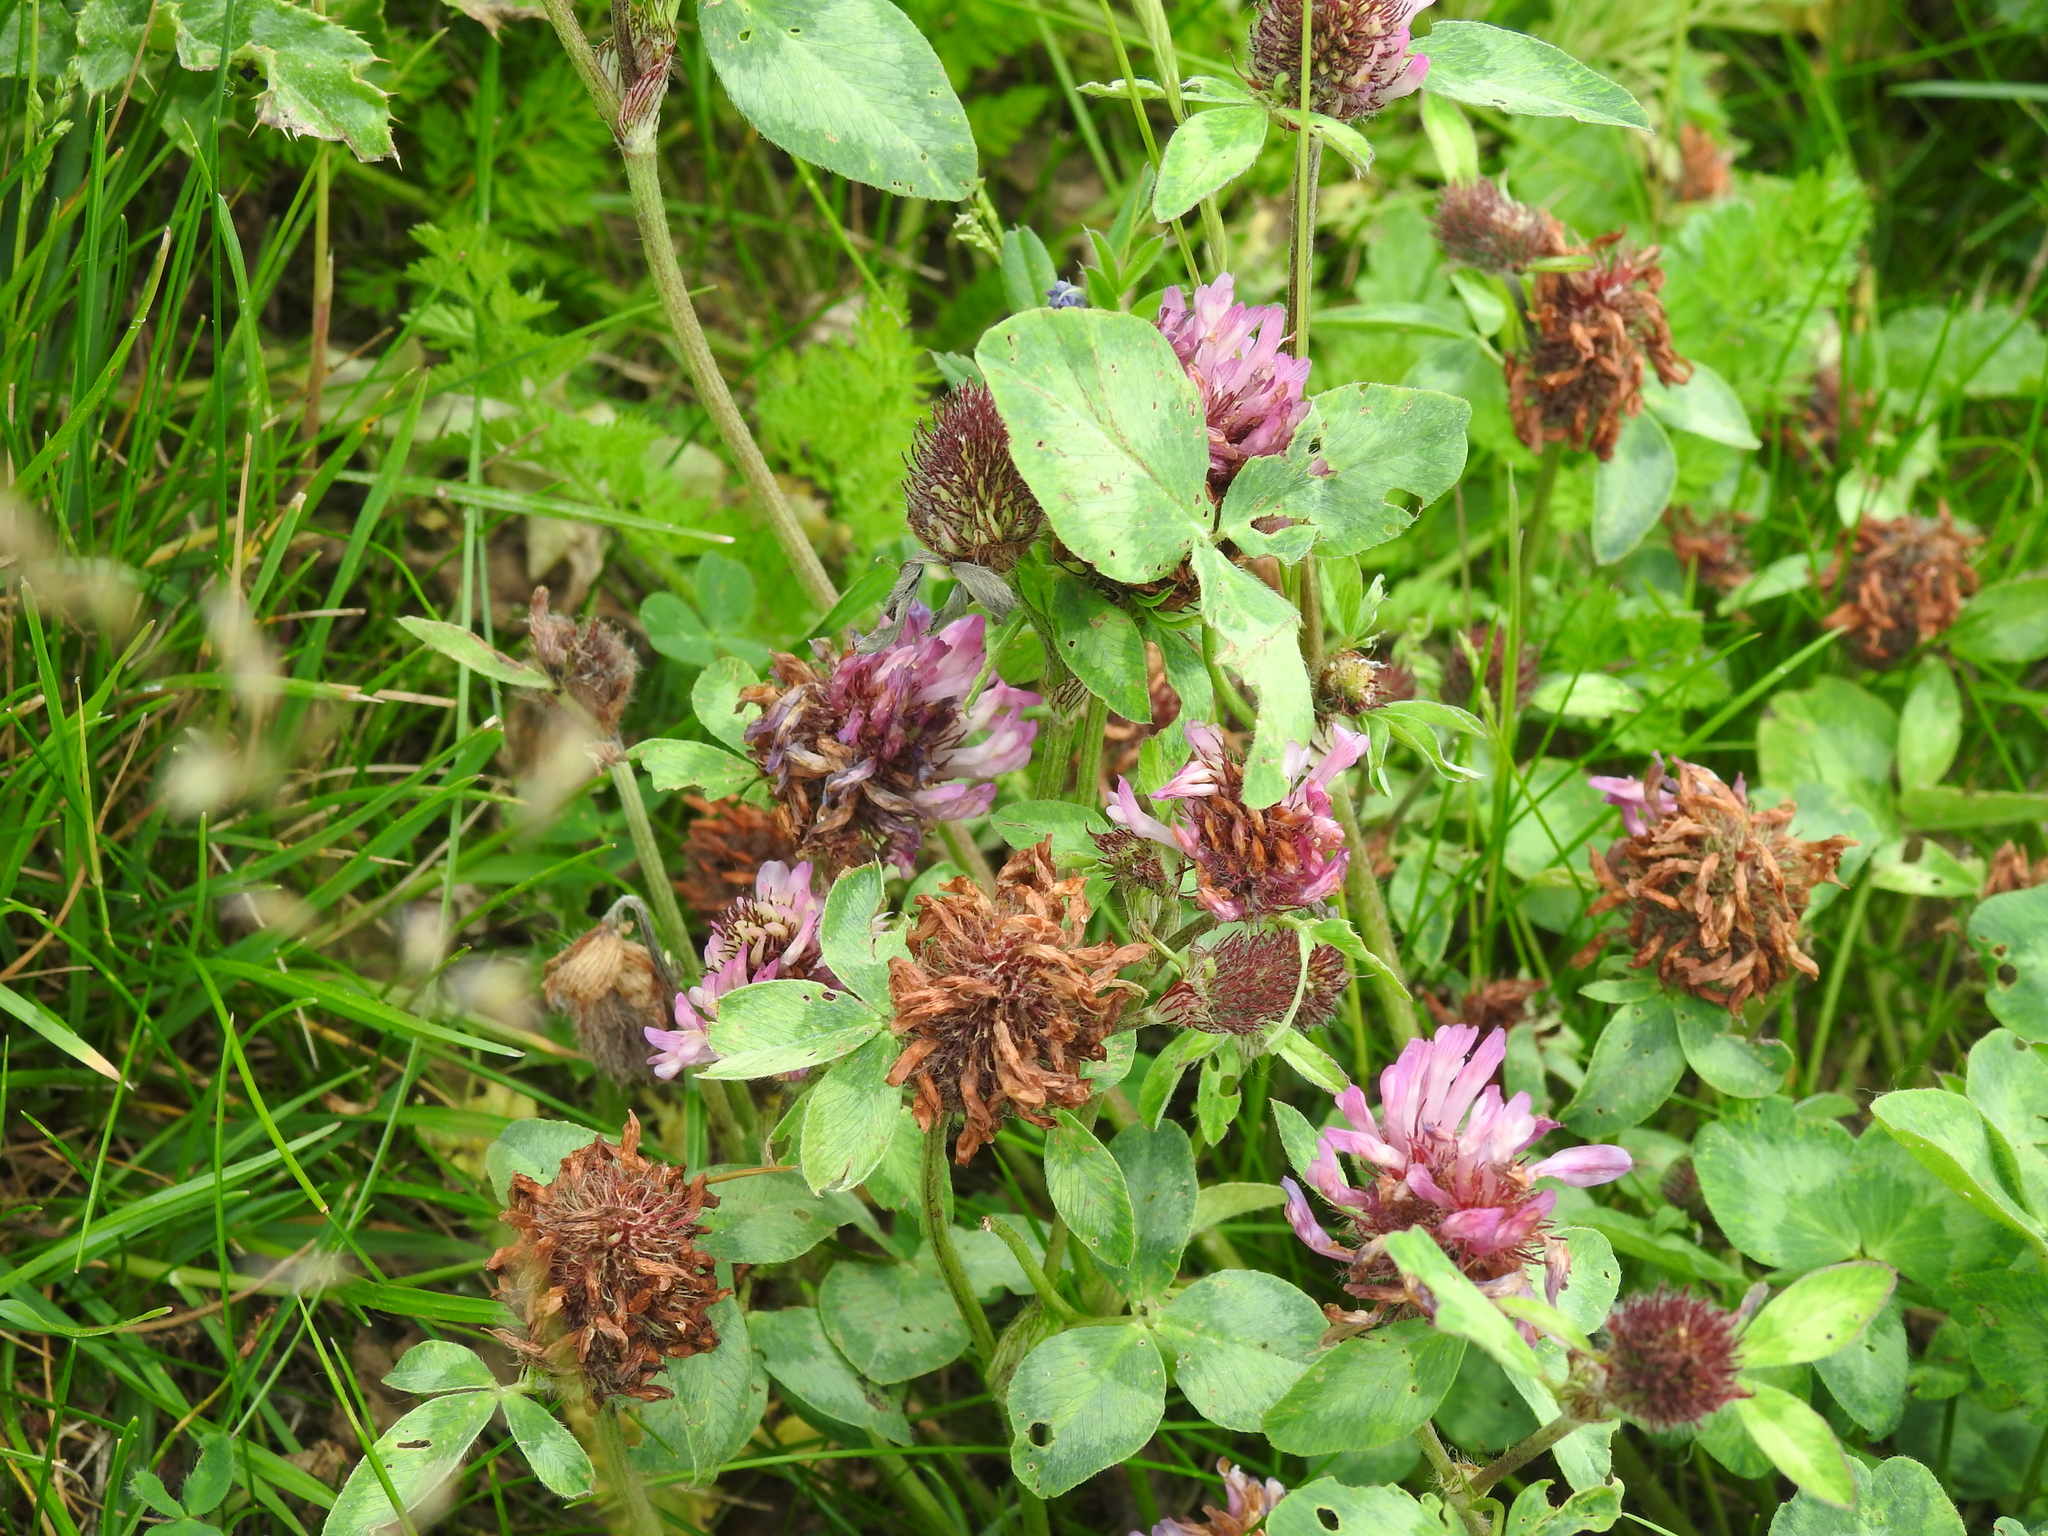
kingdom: Plantae
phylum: Tracheophyta
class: Magnoliopsida
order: Fabales
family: Fabaceae
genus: Trifolium
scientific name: Trifolium pratense
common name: Red clover
